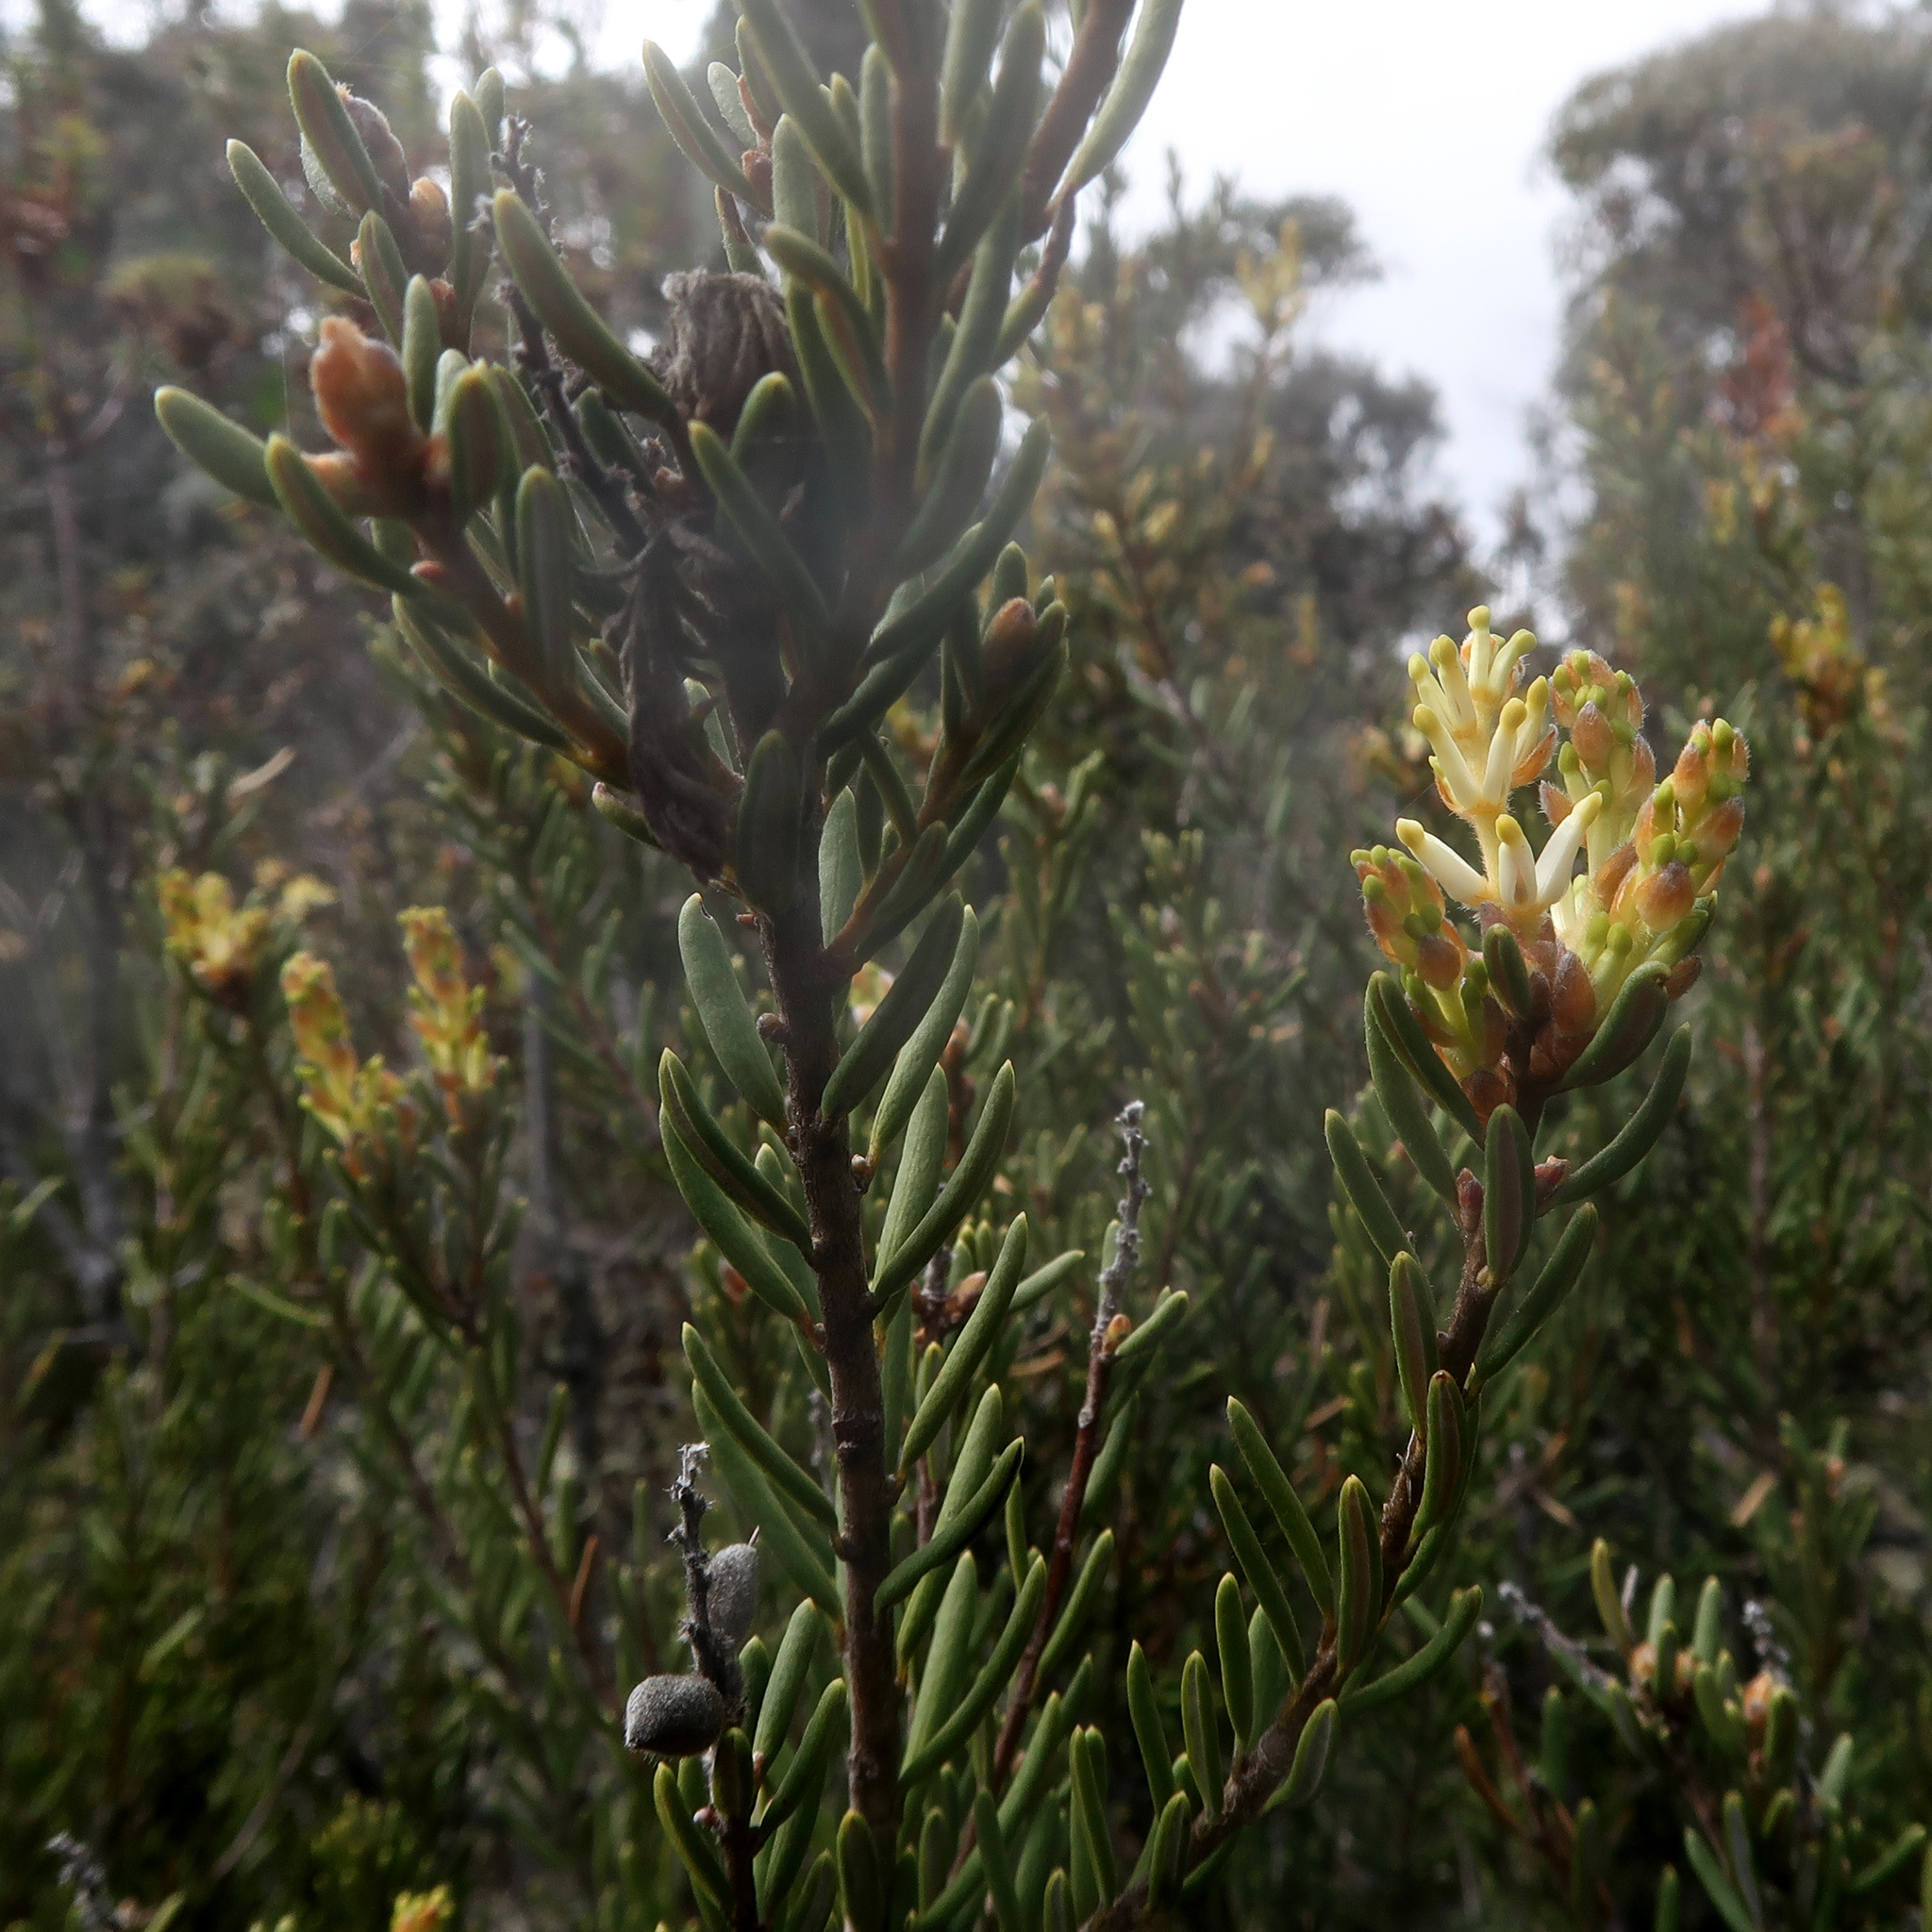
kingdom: Plantae
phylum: Tracheophyta
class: Magnoliopsida
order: Proteales
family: Proteaceae
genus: Orites
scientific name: Orites revolutus
